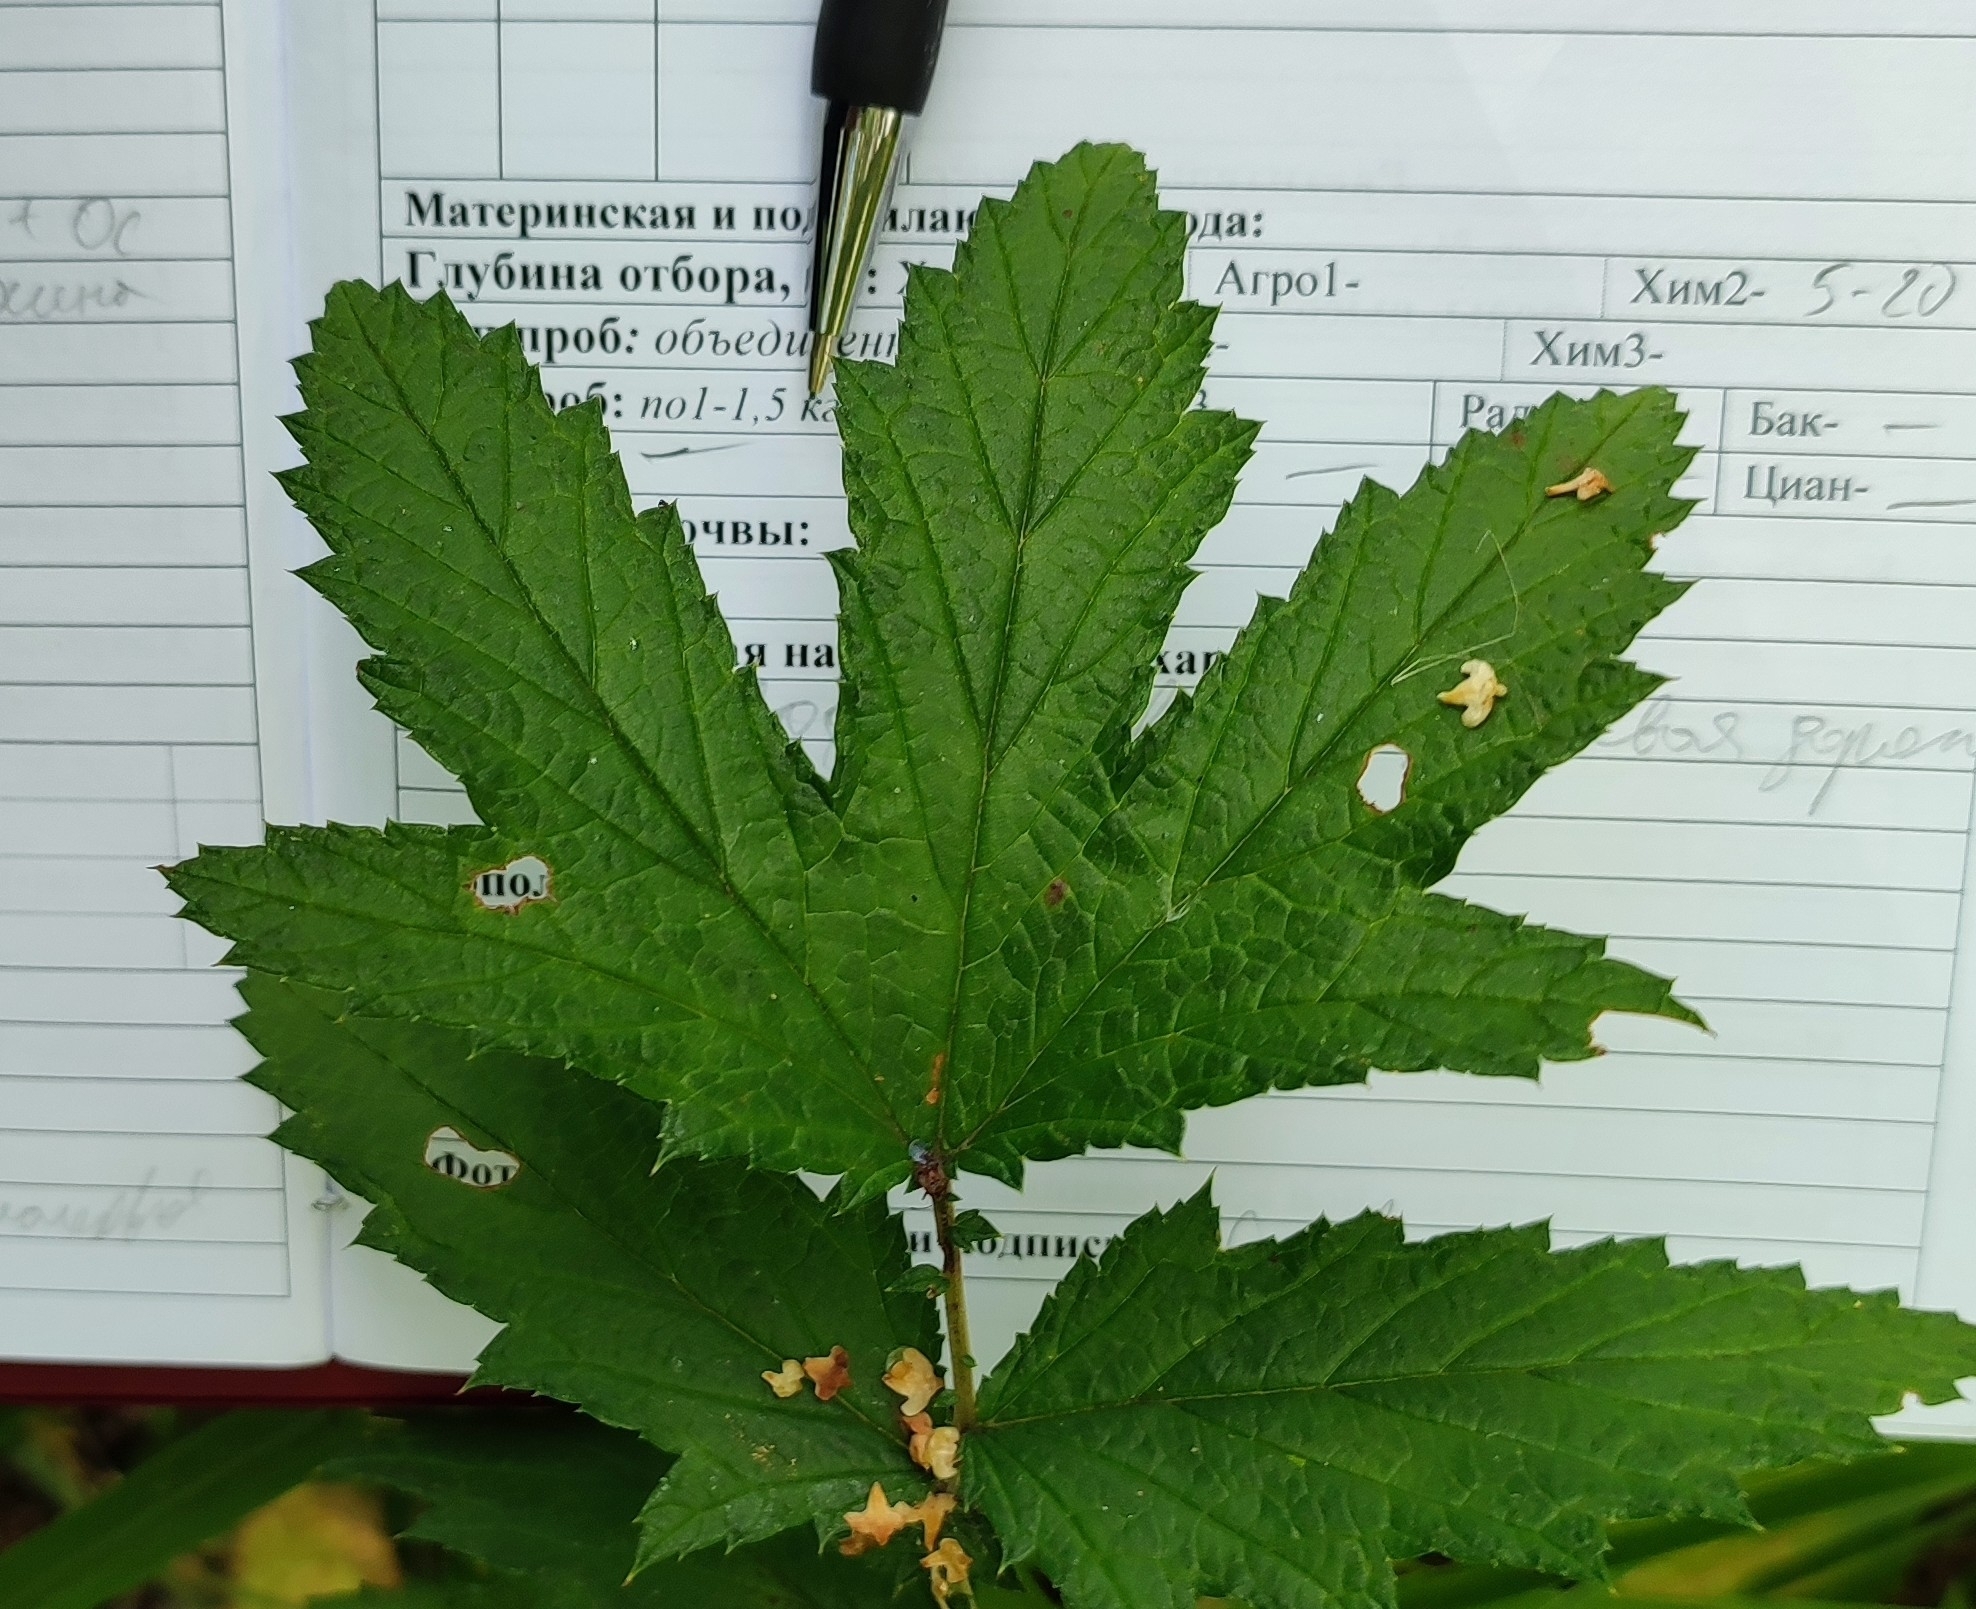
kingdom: Plantae
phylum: Tracheophyta
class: Magnoliopsida
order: Rosales
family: Rosaceae
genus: Filipendula
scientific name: Filipendula ulmaria
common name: Meadowsweet
